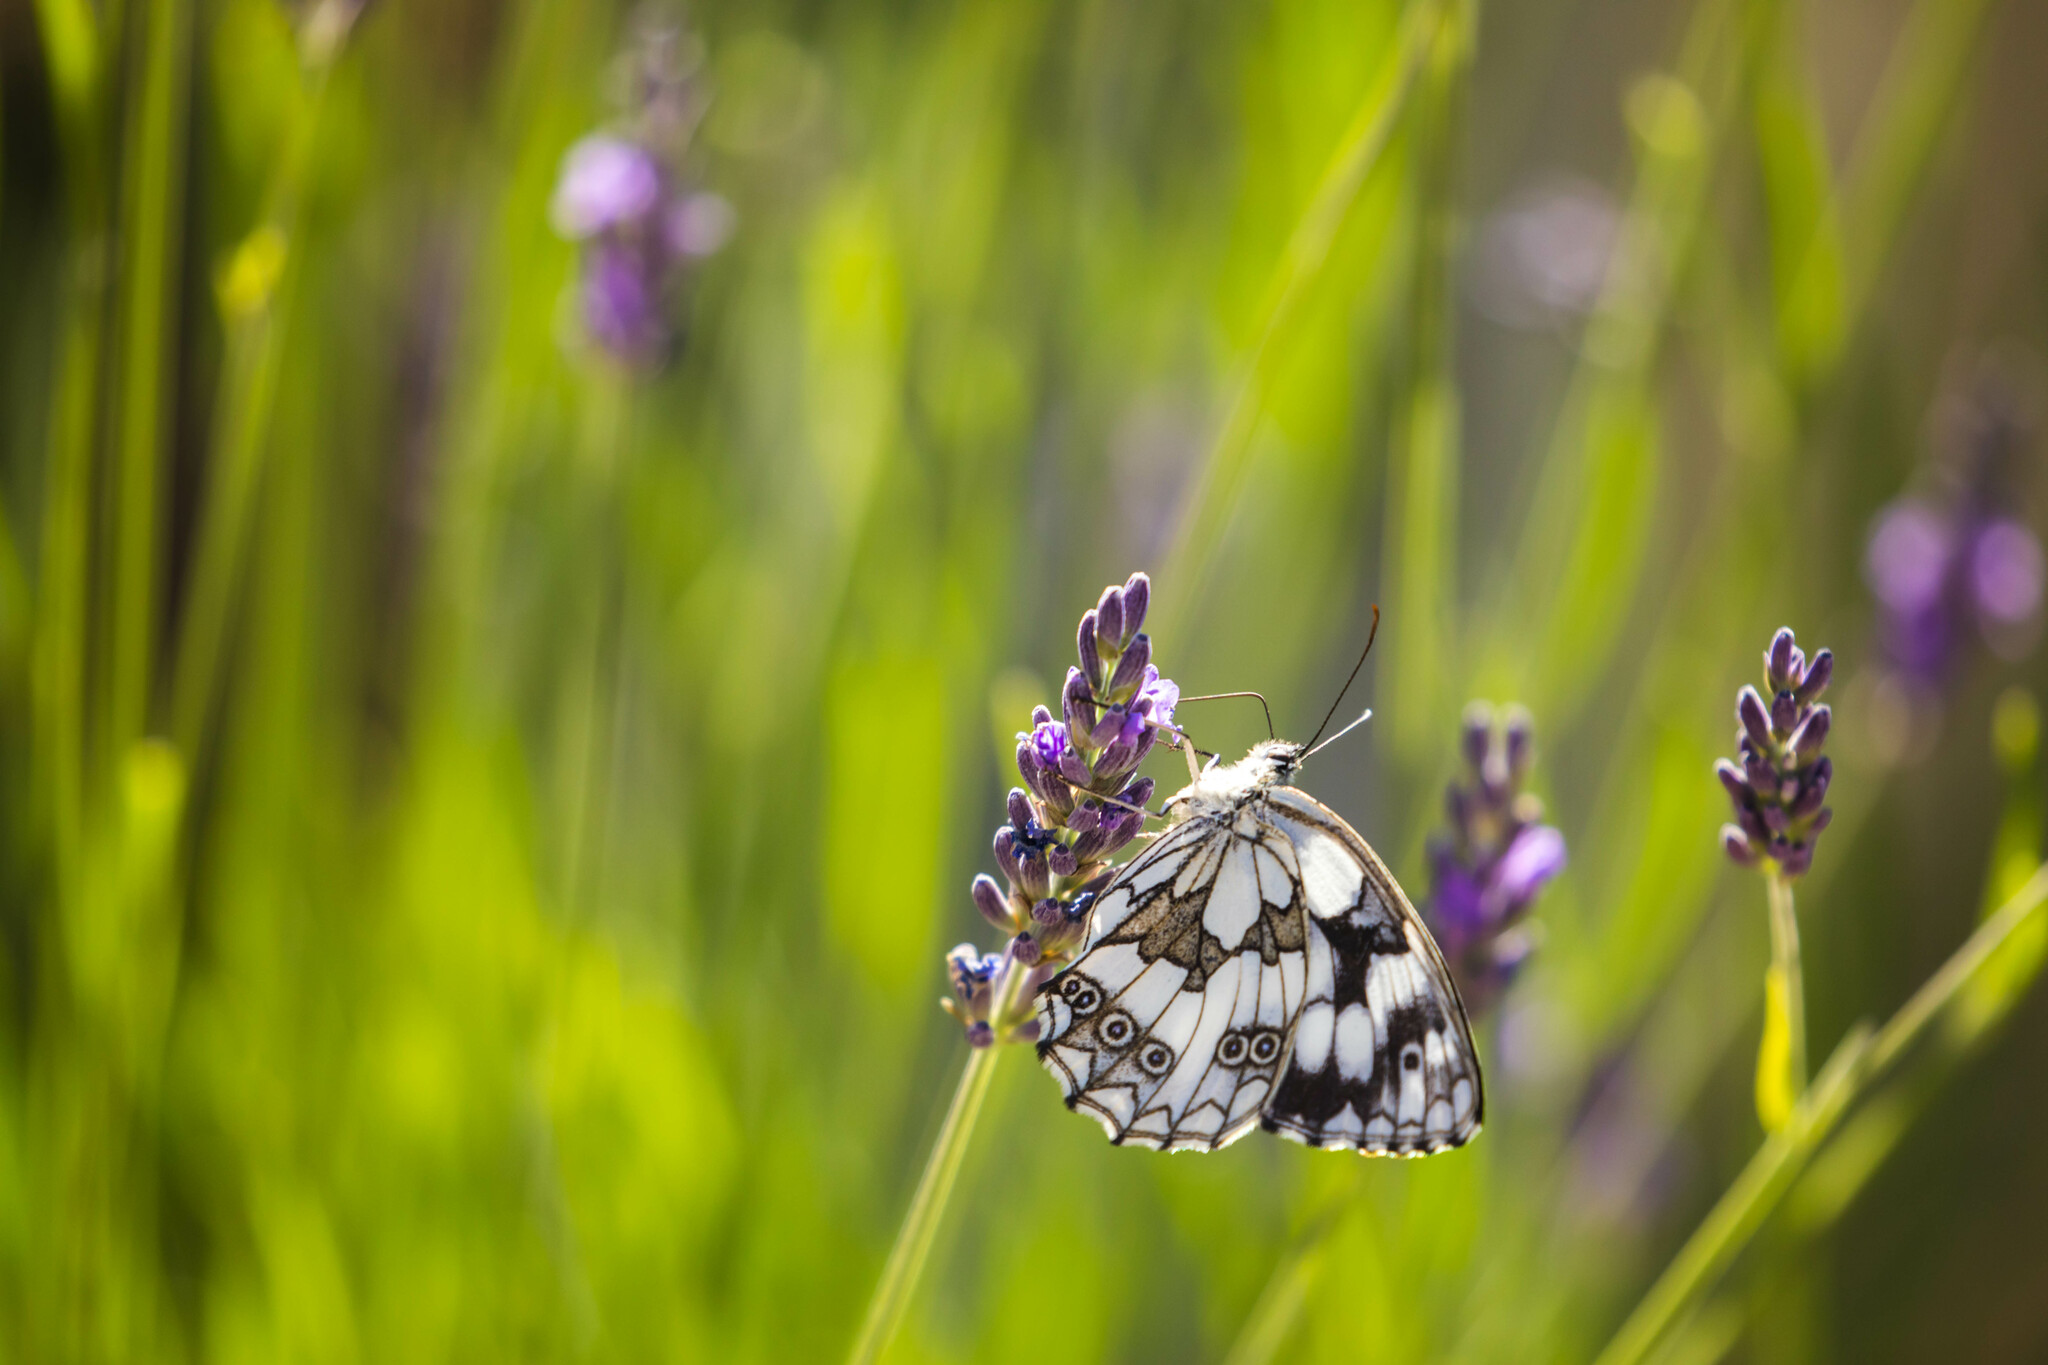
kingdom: Animalia
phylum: Arthropoda
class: Insecta
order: Lepidoptera
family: Nymphalidae
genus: Melanargia
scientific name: Melanargia galathea
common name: Marbled white
